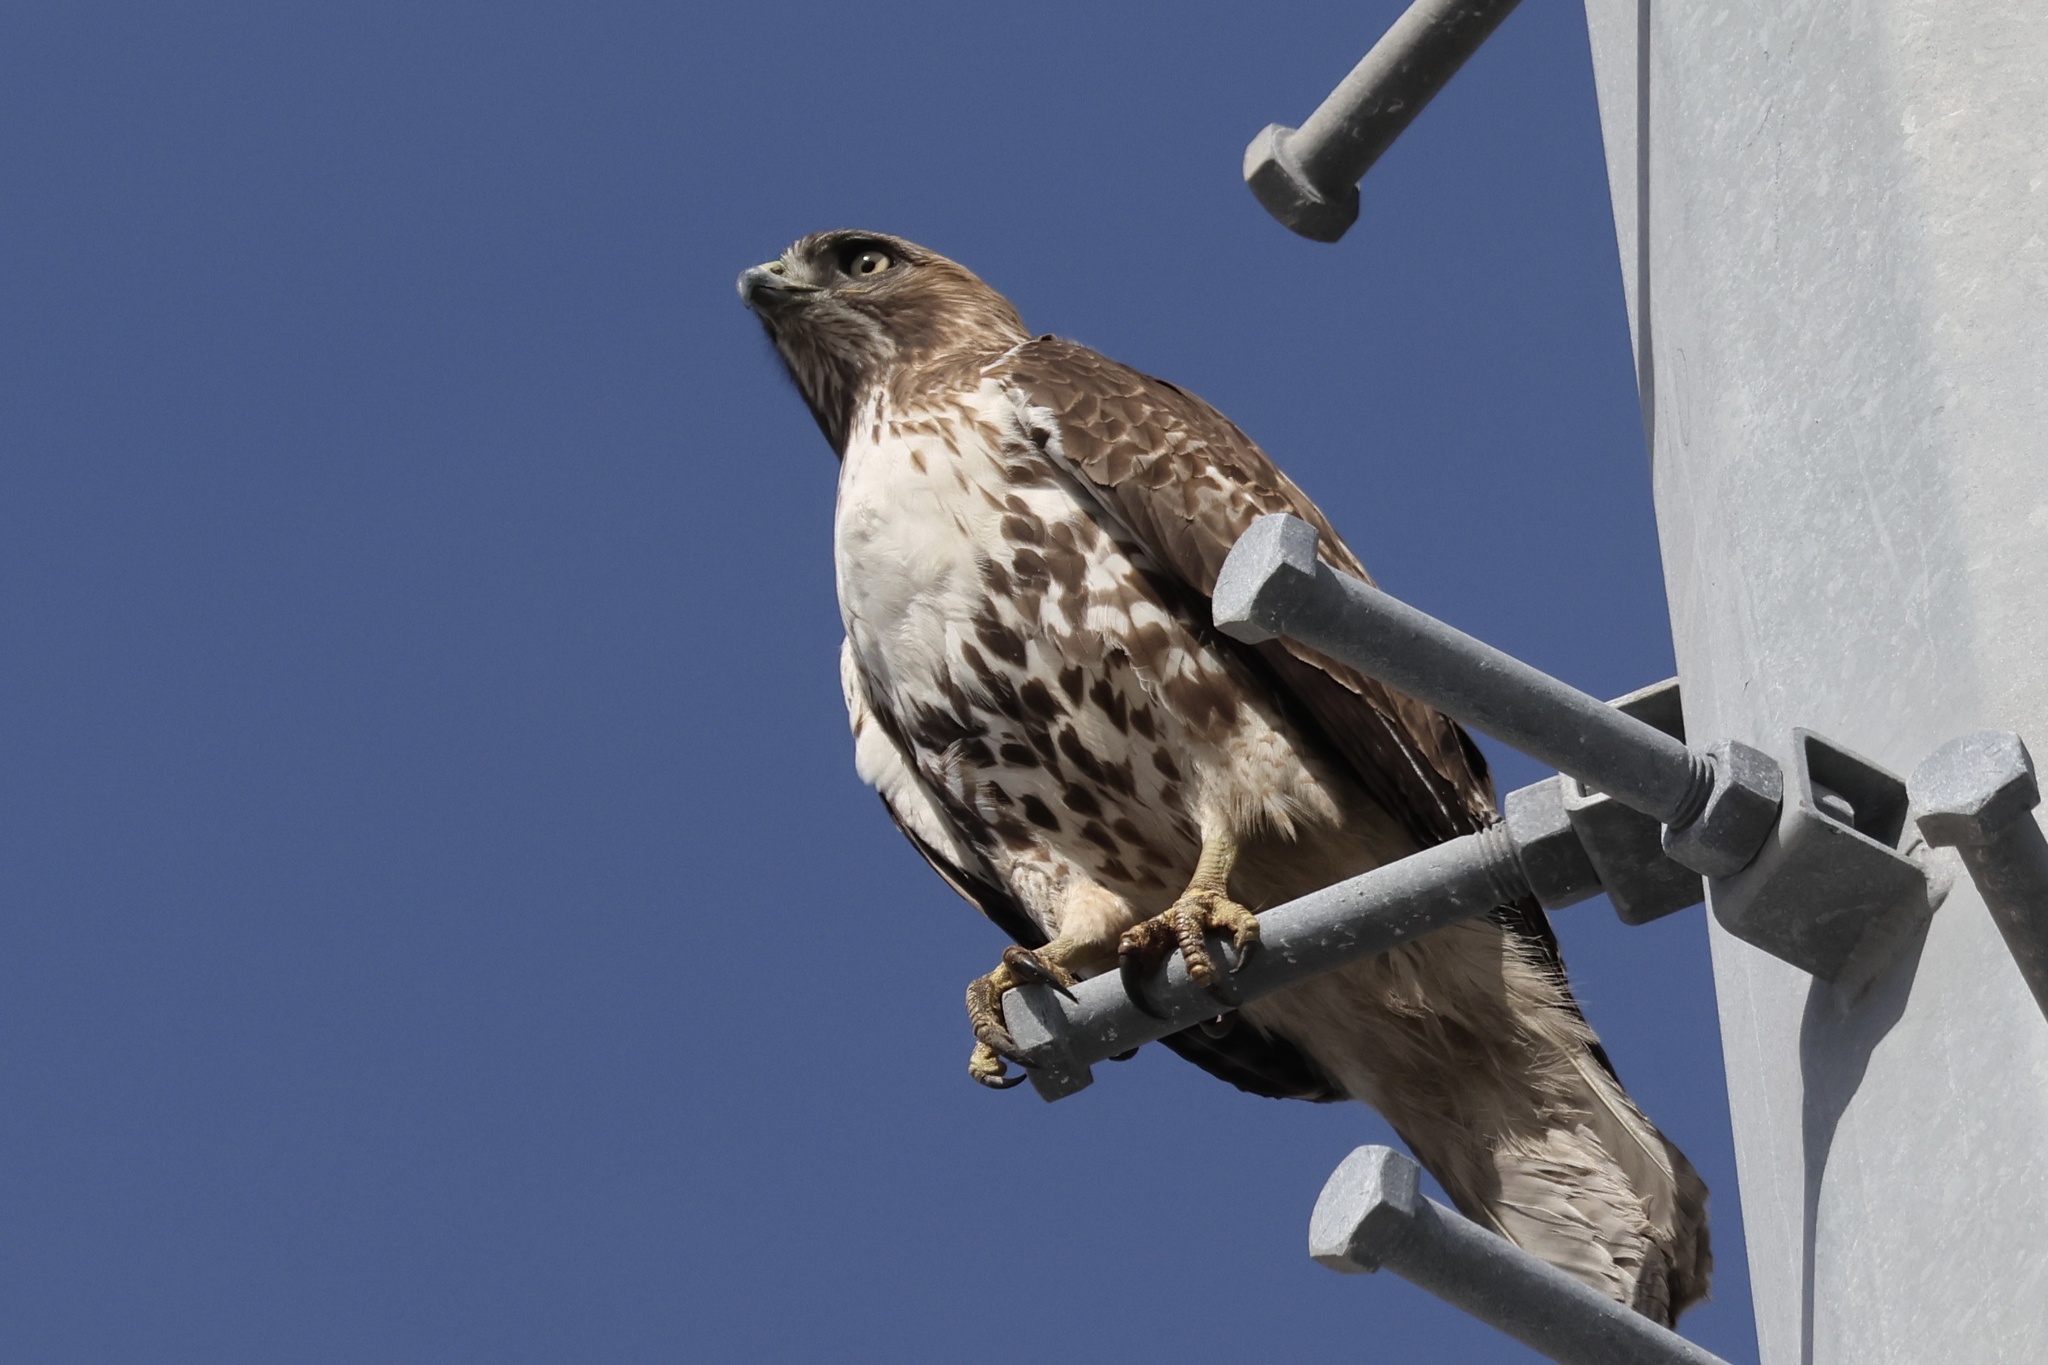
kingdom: Animalia
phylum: Chordata
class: Aves
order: Accipitriformes
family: Accipitridae
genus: Buteo
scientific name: Buteo jamaicensis
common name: Red-tailed hawk
